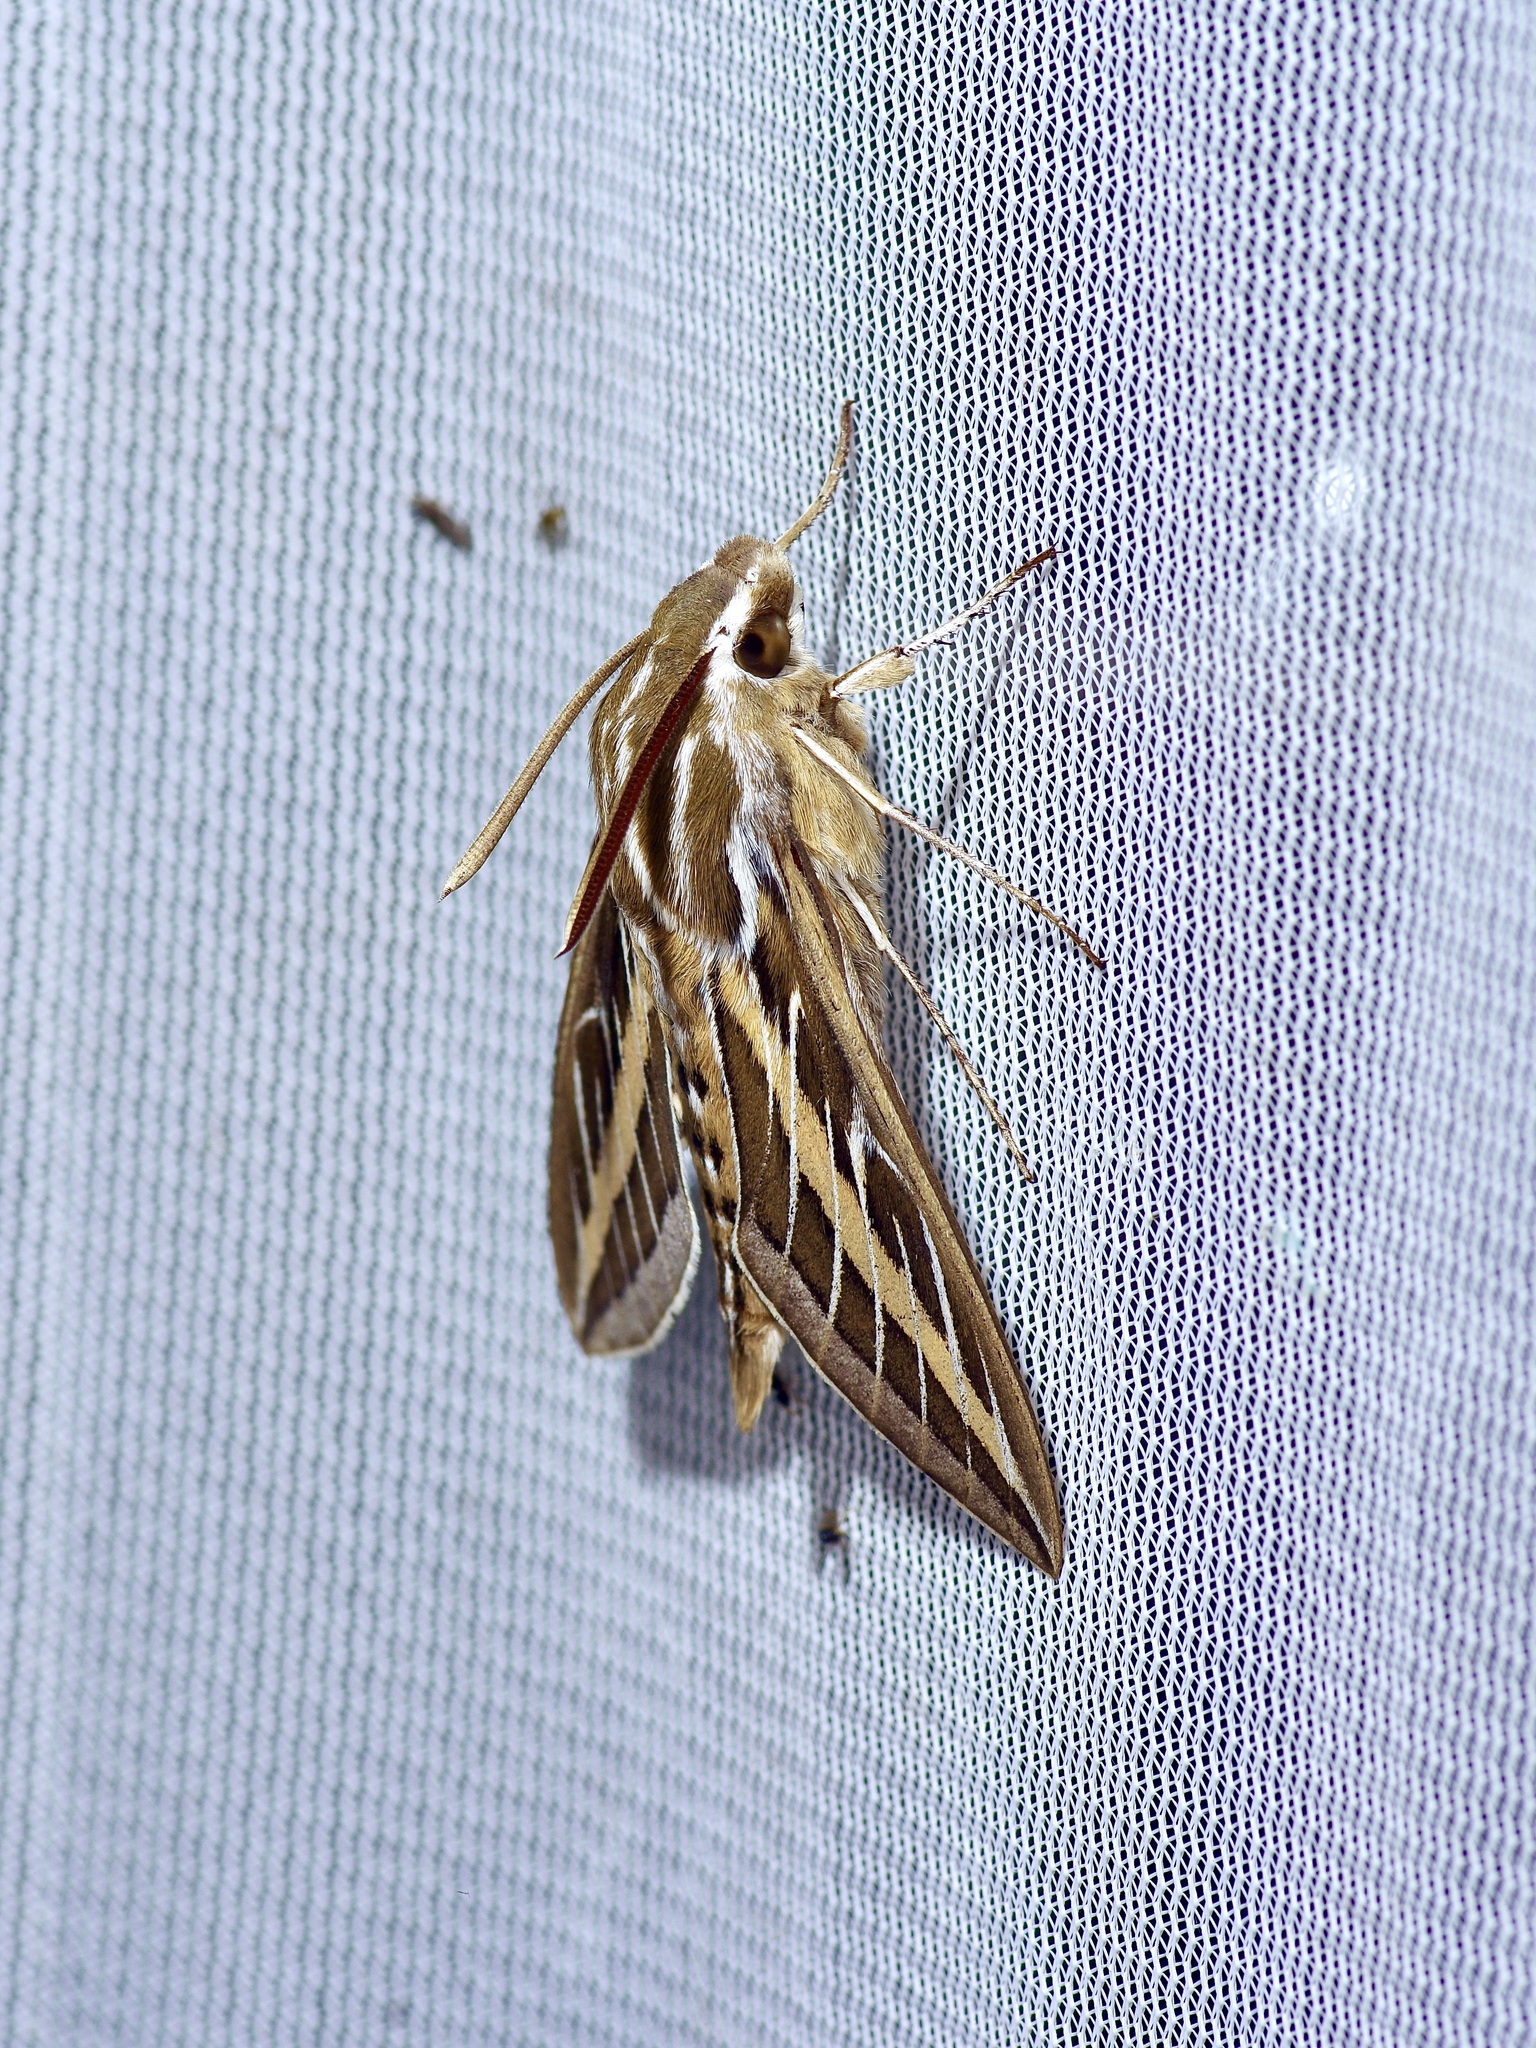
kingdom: Animalia
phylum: Arthropoda
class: Insecta
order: Lepidoptera
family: Sphingidae
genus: Hyles
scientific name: Hyles lineata
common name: White-lined sphinx
